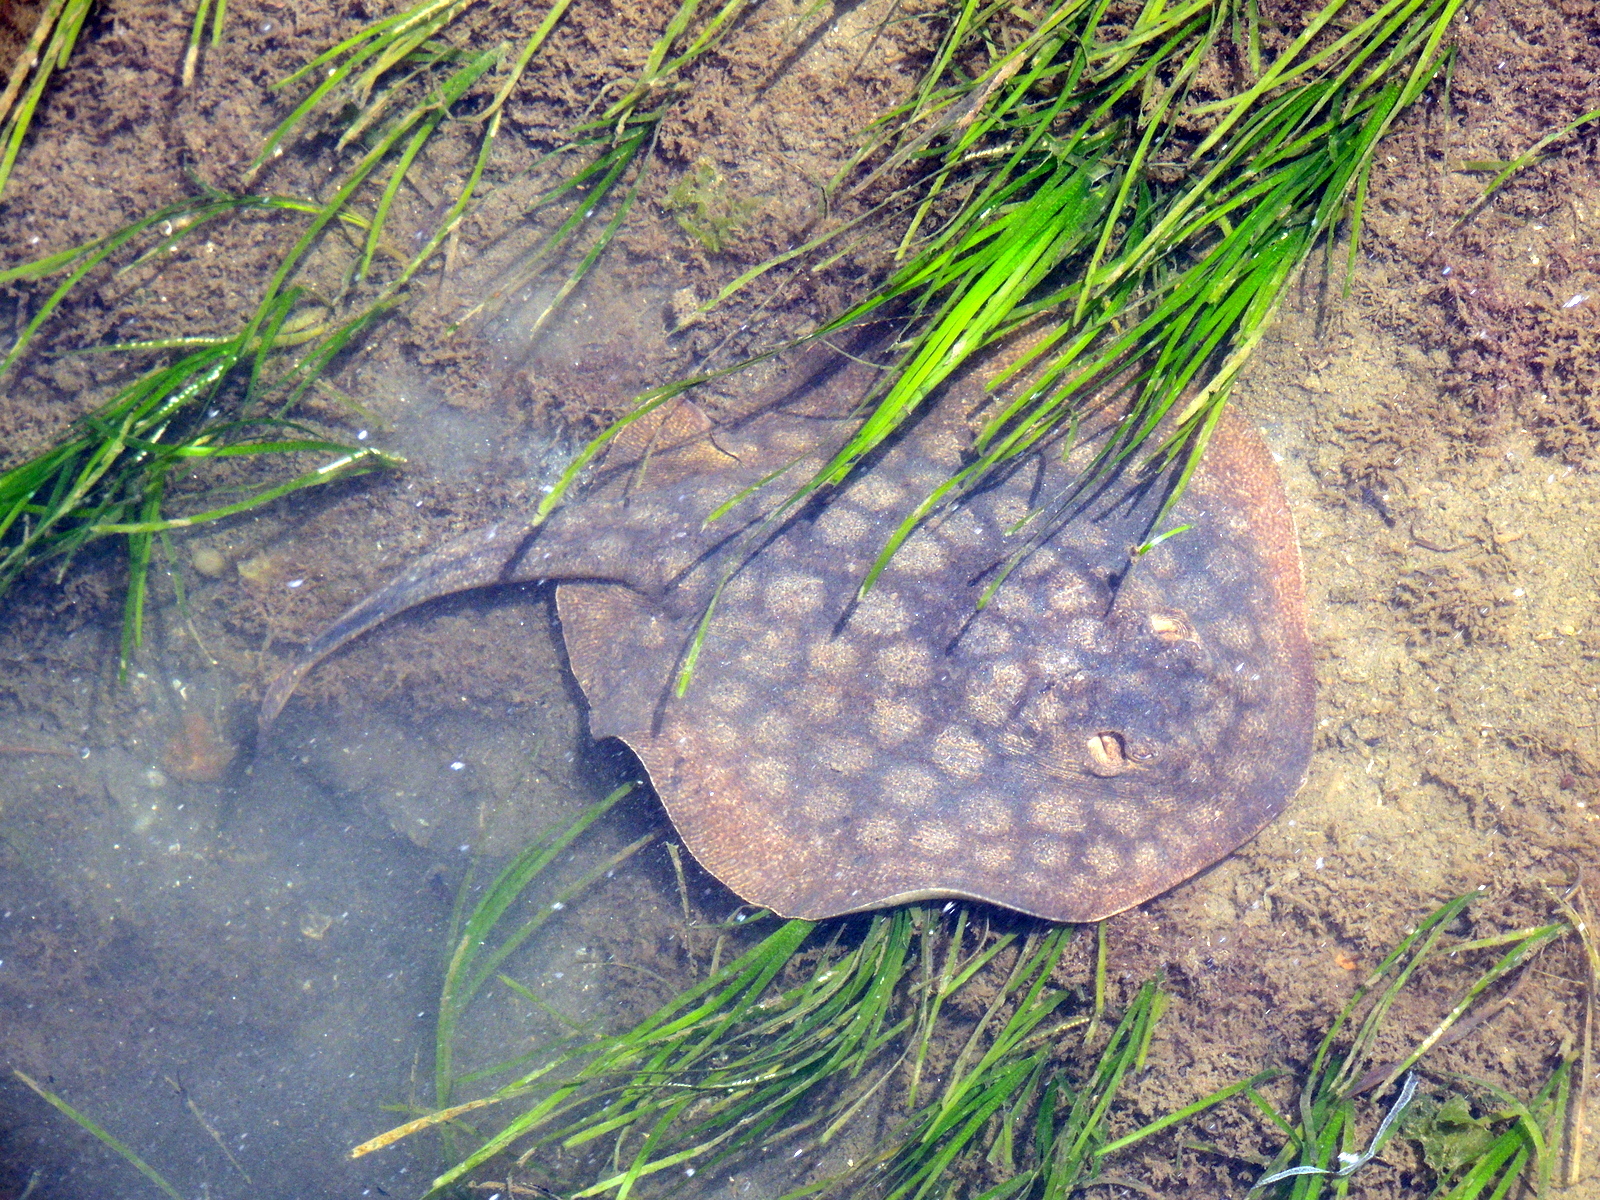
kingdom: Animalia
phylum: Chordata
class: Elasmobranchii
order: Myliobatiformes
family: Urolophidae
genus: Urolophus
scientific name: Urolophus halleri
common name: Round stingray
